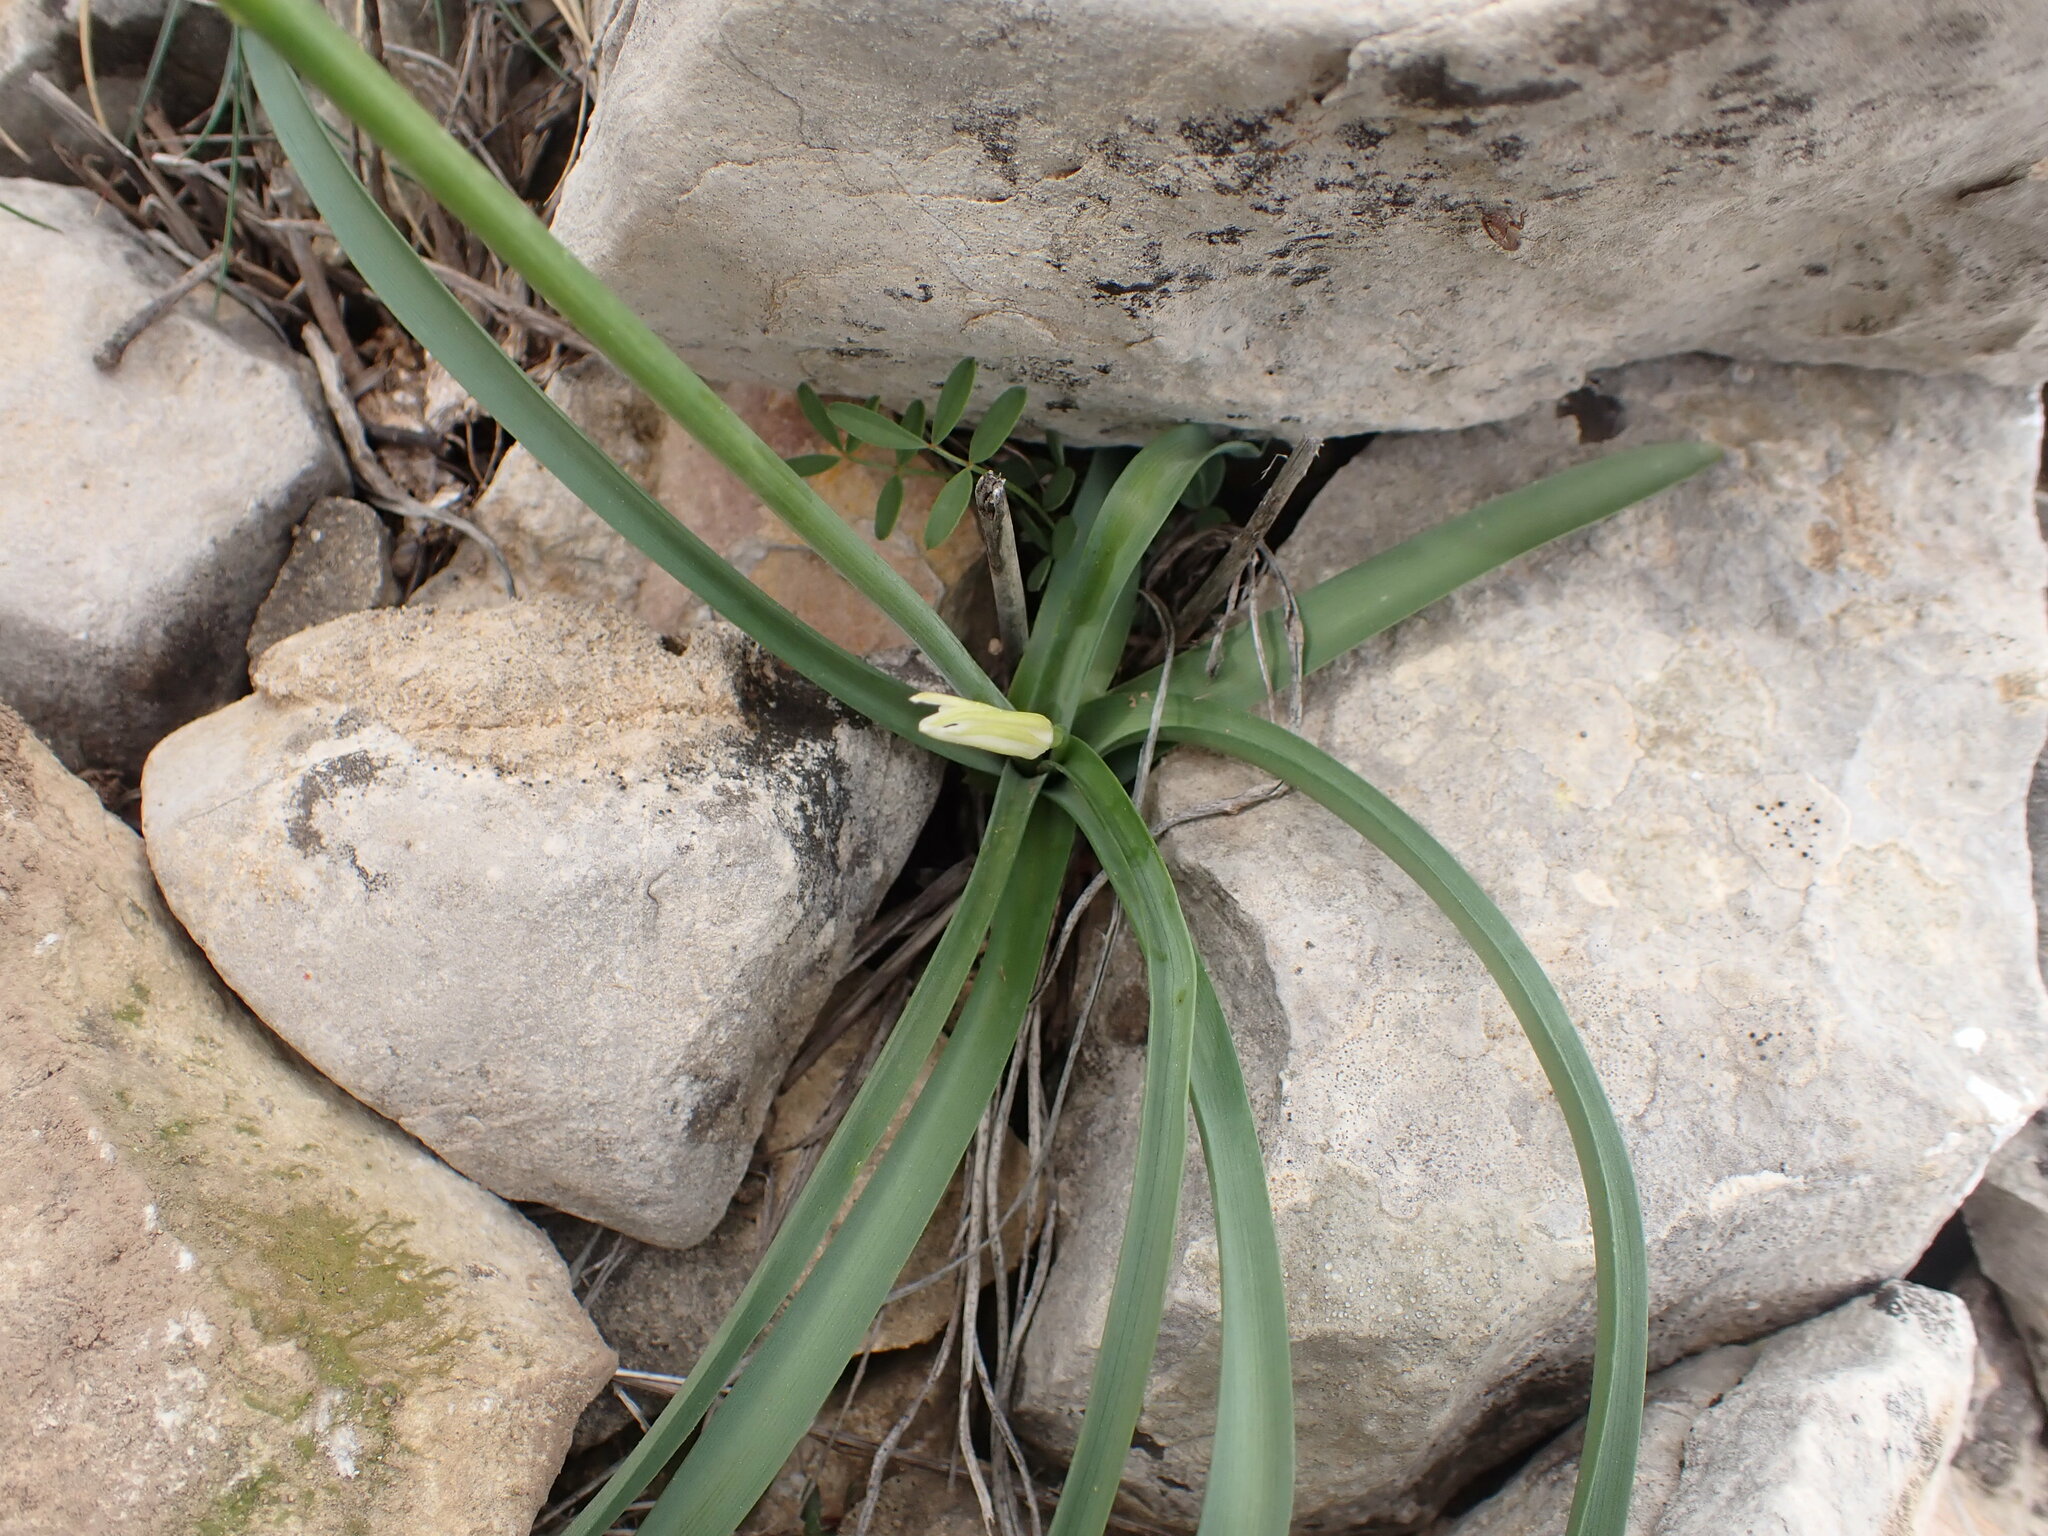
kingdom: Plantae
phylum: Tracheophyta
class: Liliopsida
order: Asparagales
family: Asparagaceae
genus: Anthericum
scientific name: Anthericum liliago
